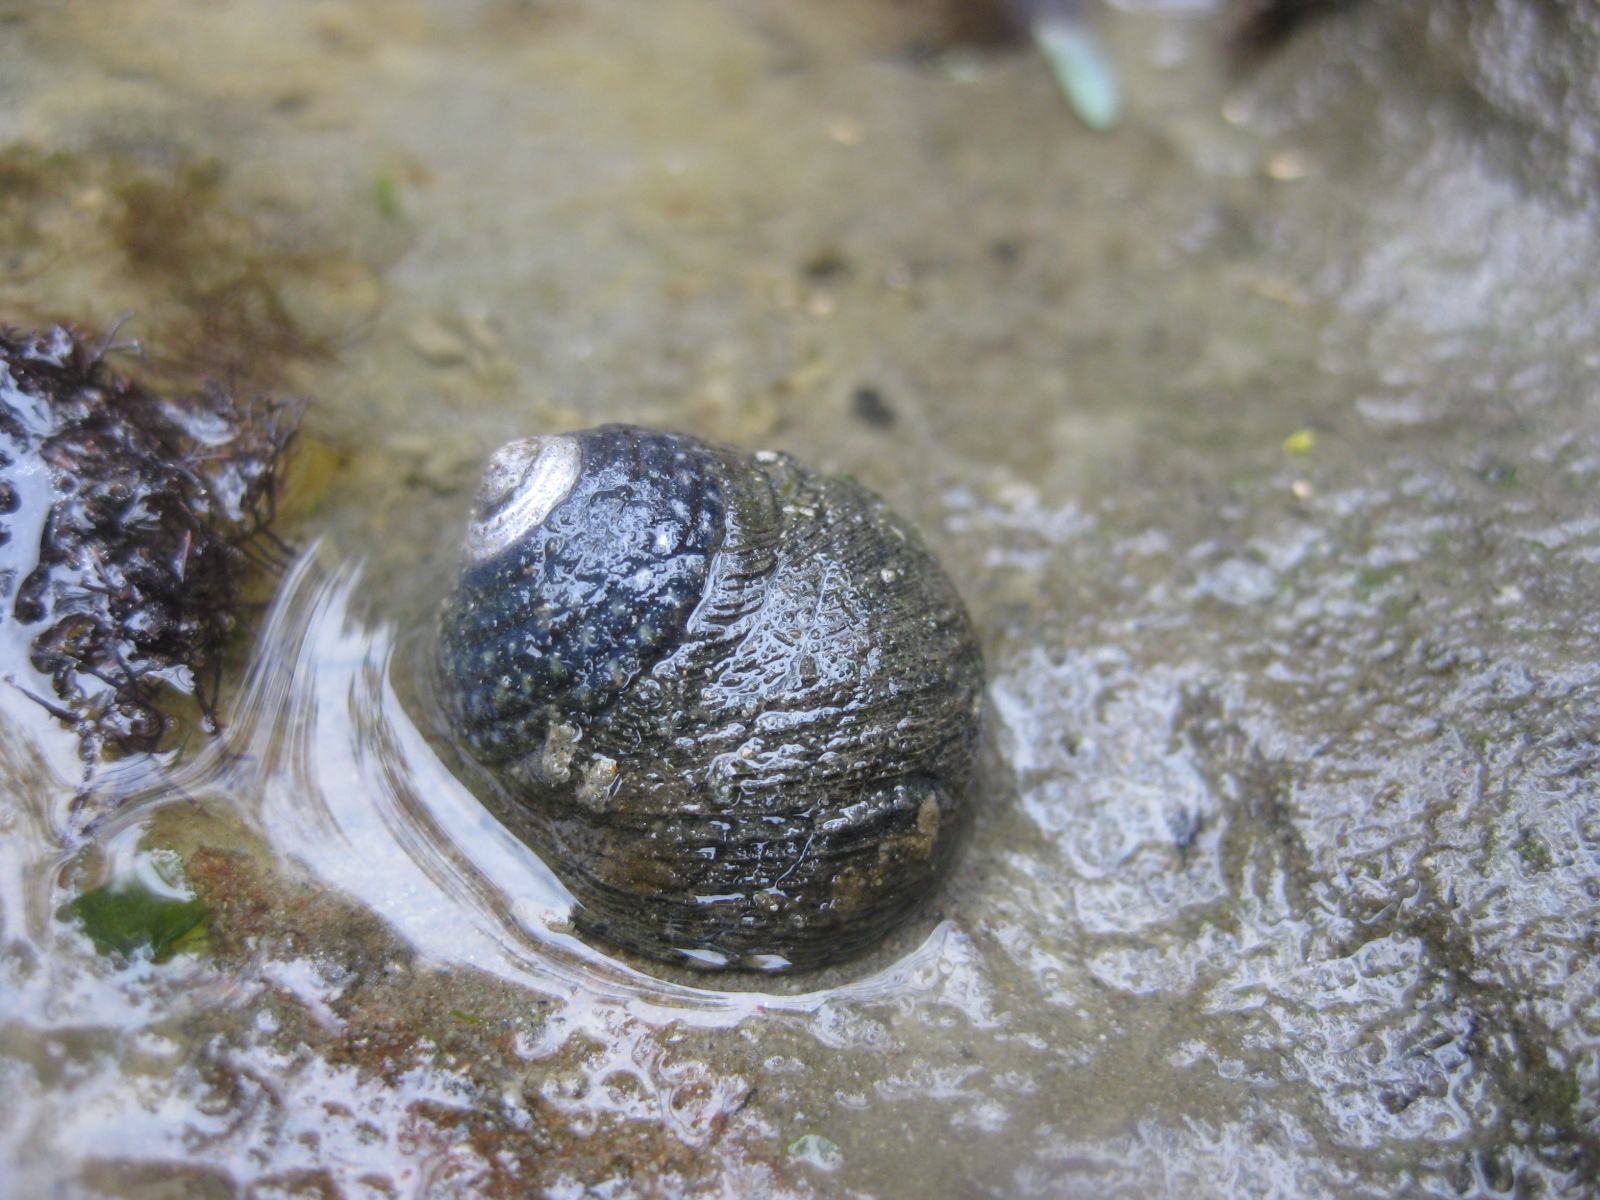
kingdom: Animalia
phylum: Mollusca
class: Gastropoda
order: Trochida
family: Trochidae
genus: Diloma
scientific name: Diloma aethiops
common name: Scorched monodont
